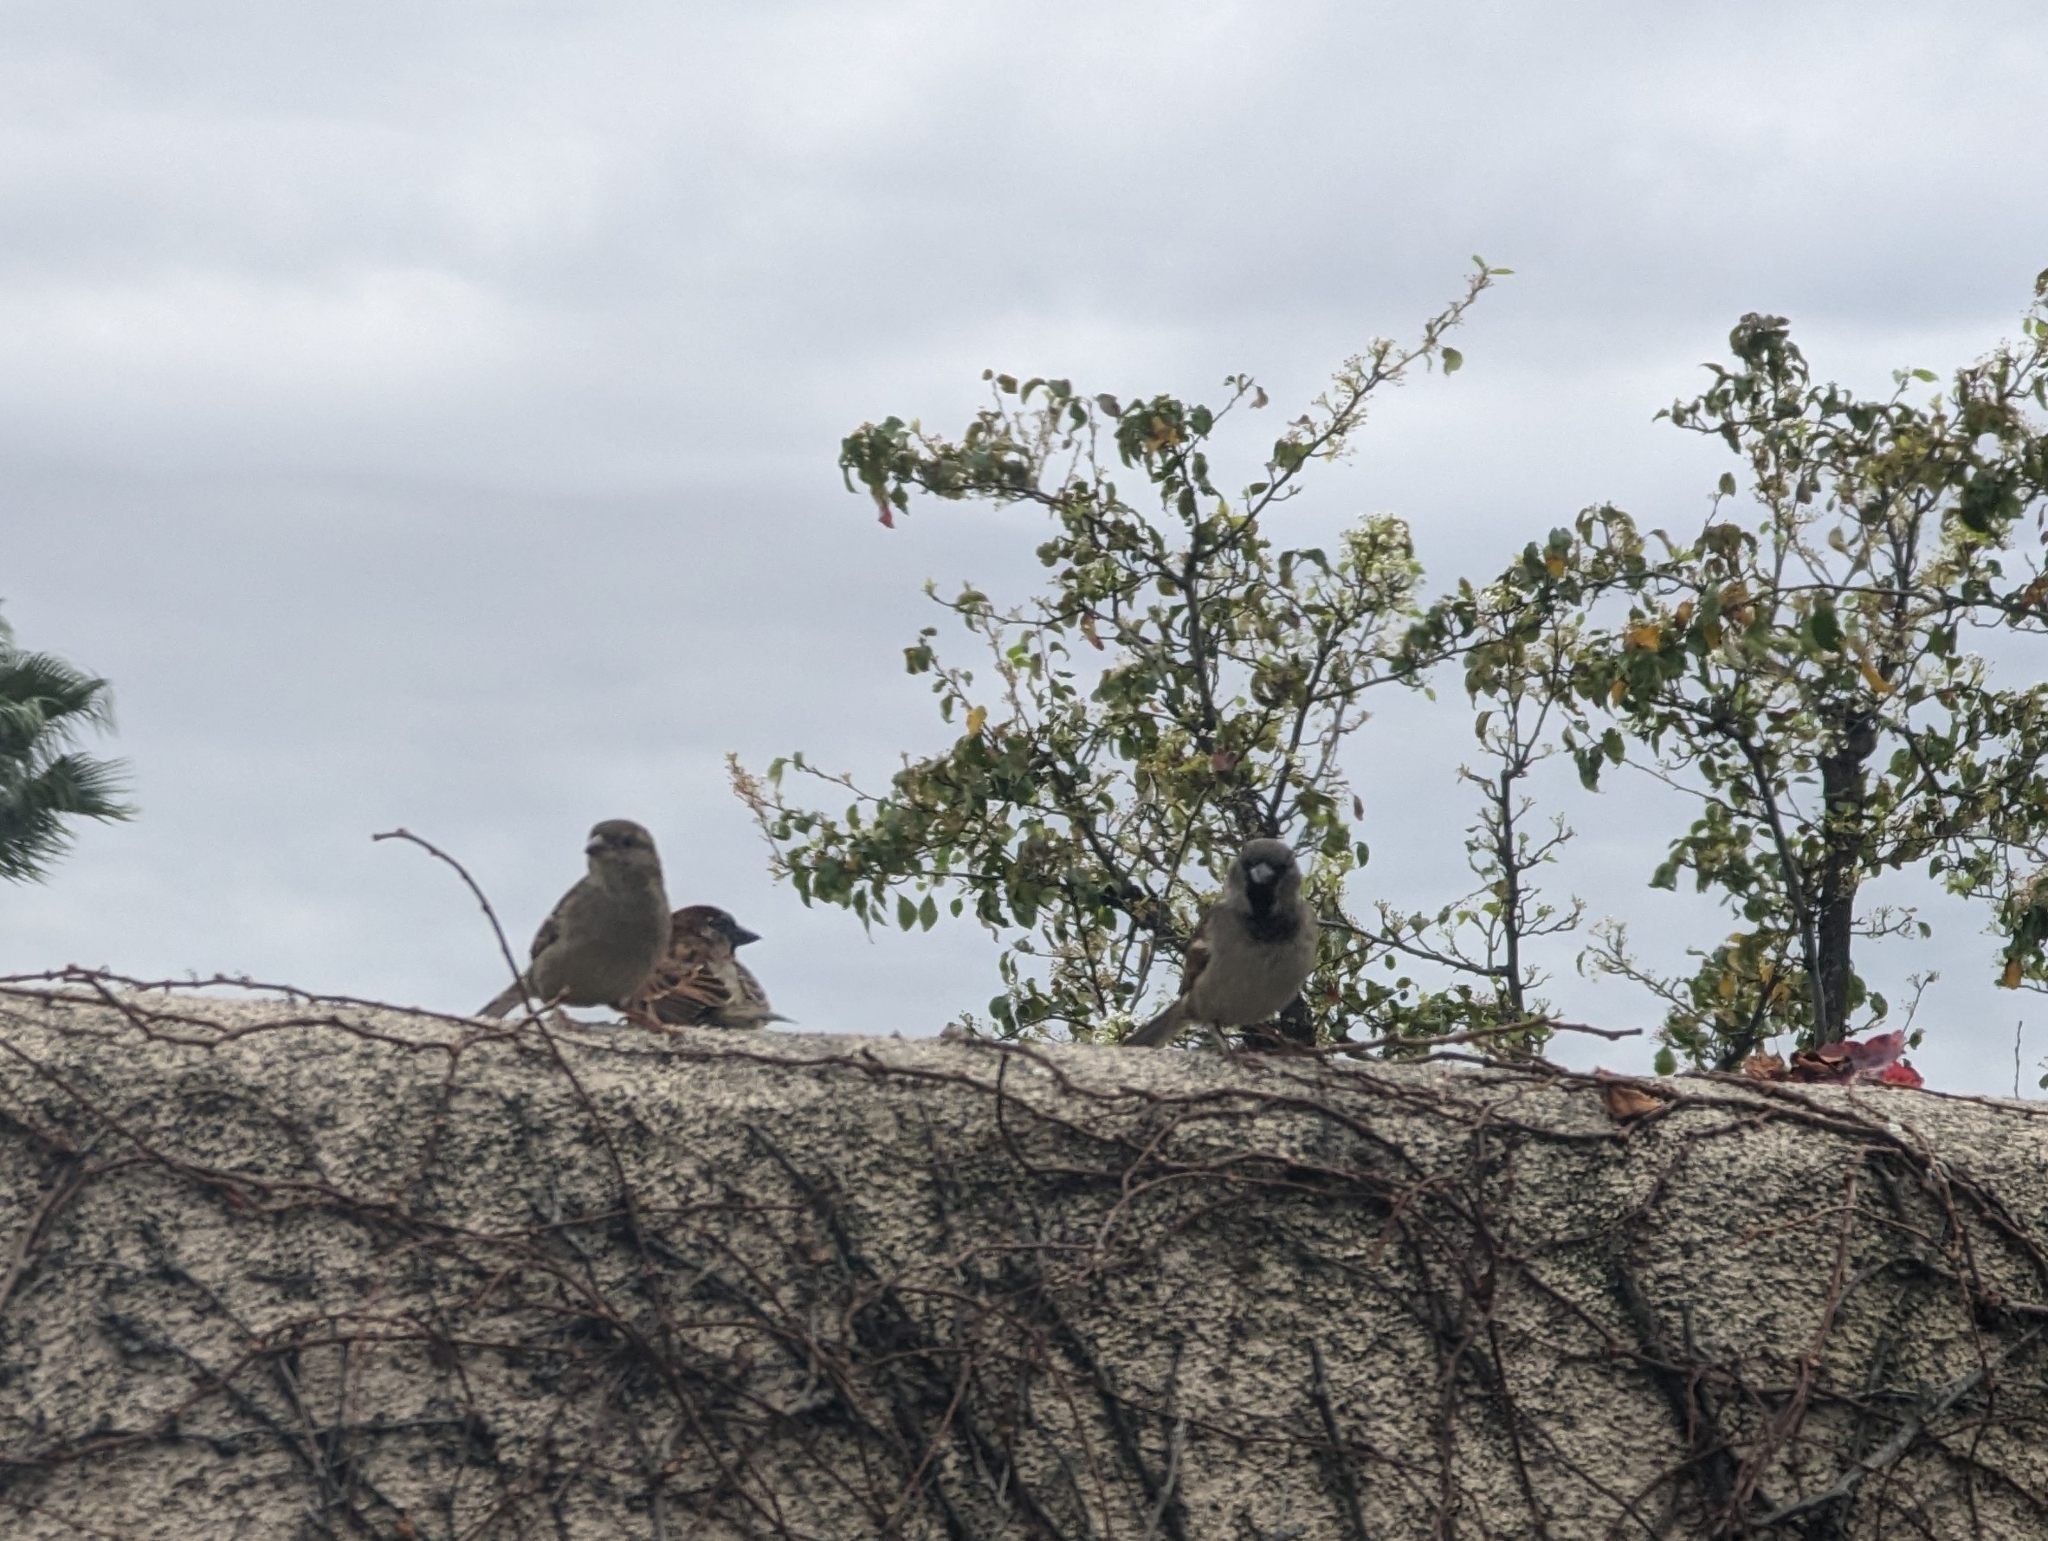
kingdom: Animalia
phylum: Chordata
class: Aves
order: Passeriformes
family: Passeridae
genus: Passer
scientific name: Passer domesticus
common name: House sparrow
